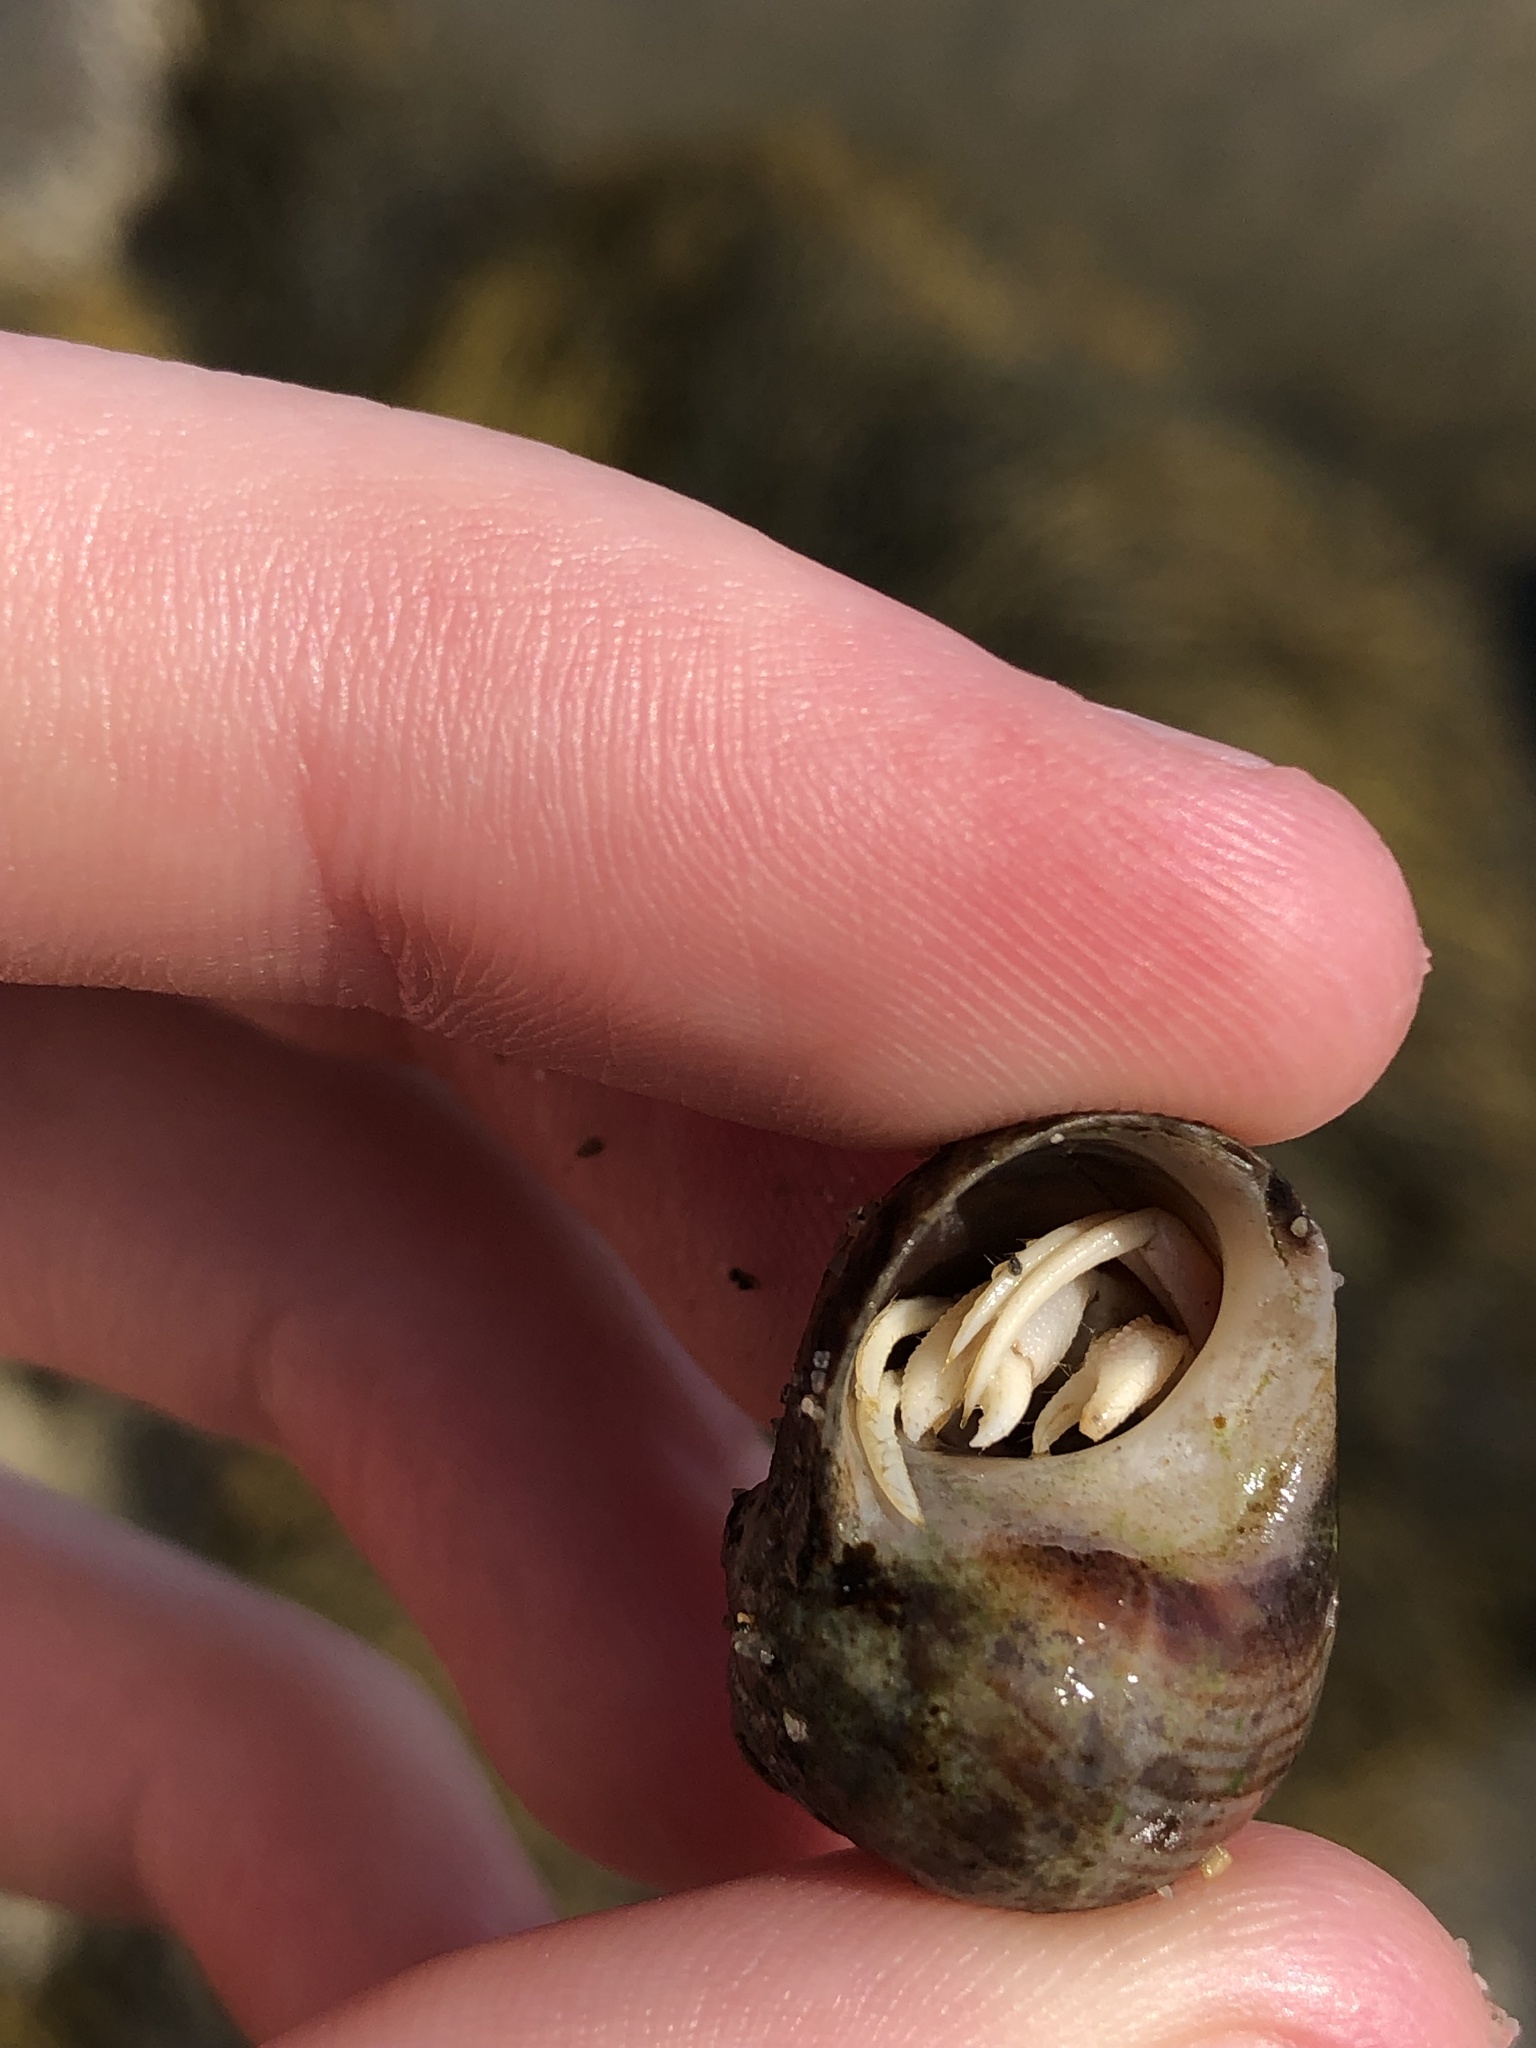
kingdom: Animalia
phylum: Arthropoda
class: Malacostraca
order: Decapoda
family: Paguridae
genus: Pagurus
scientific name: Pagurus longicarpus
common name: Long-armed hermit crab
